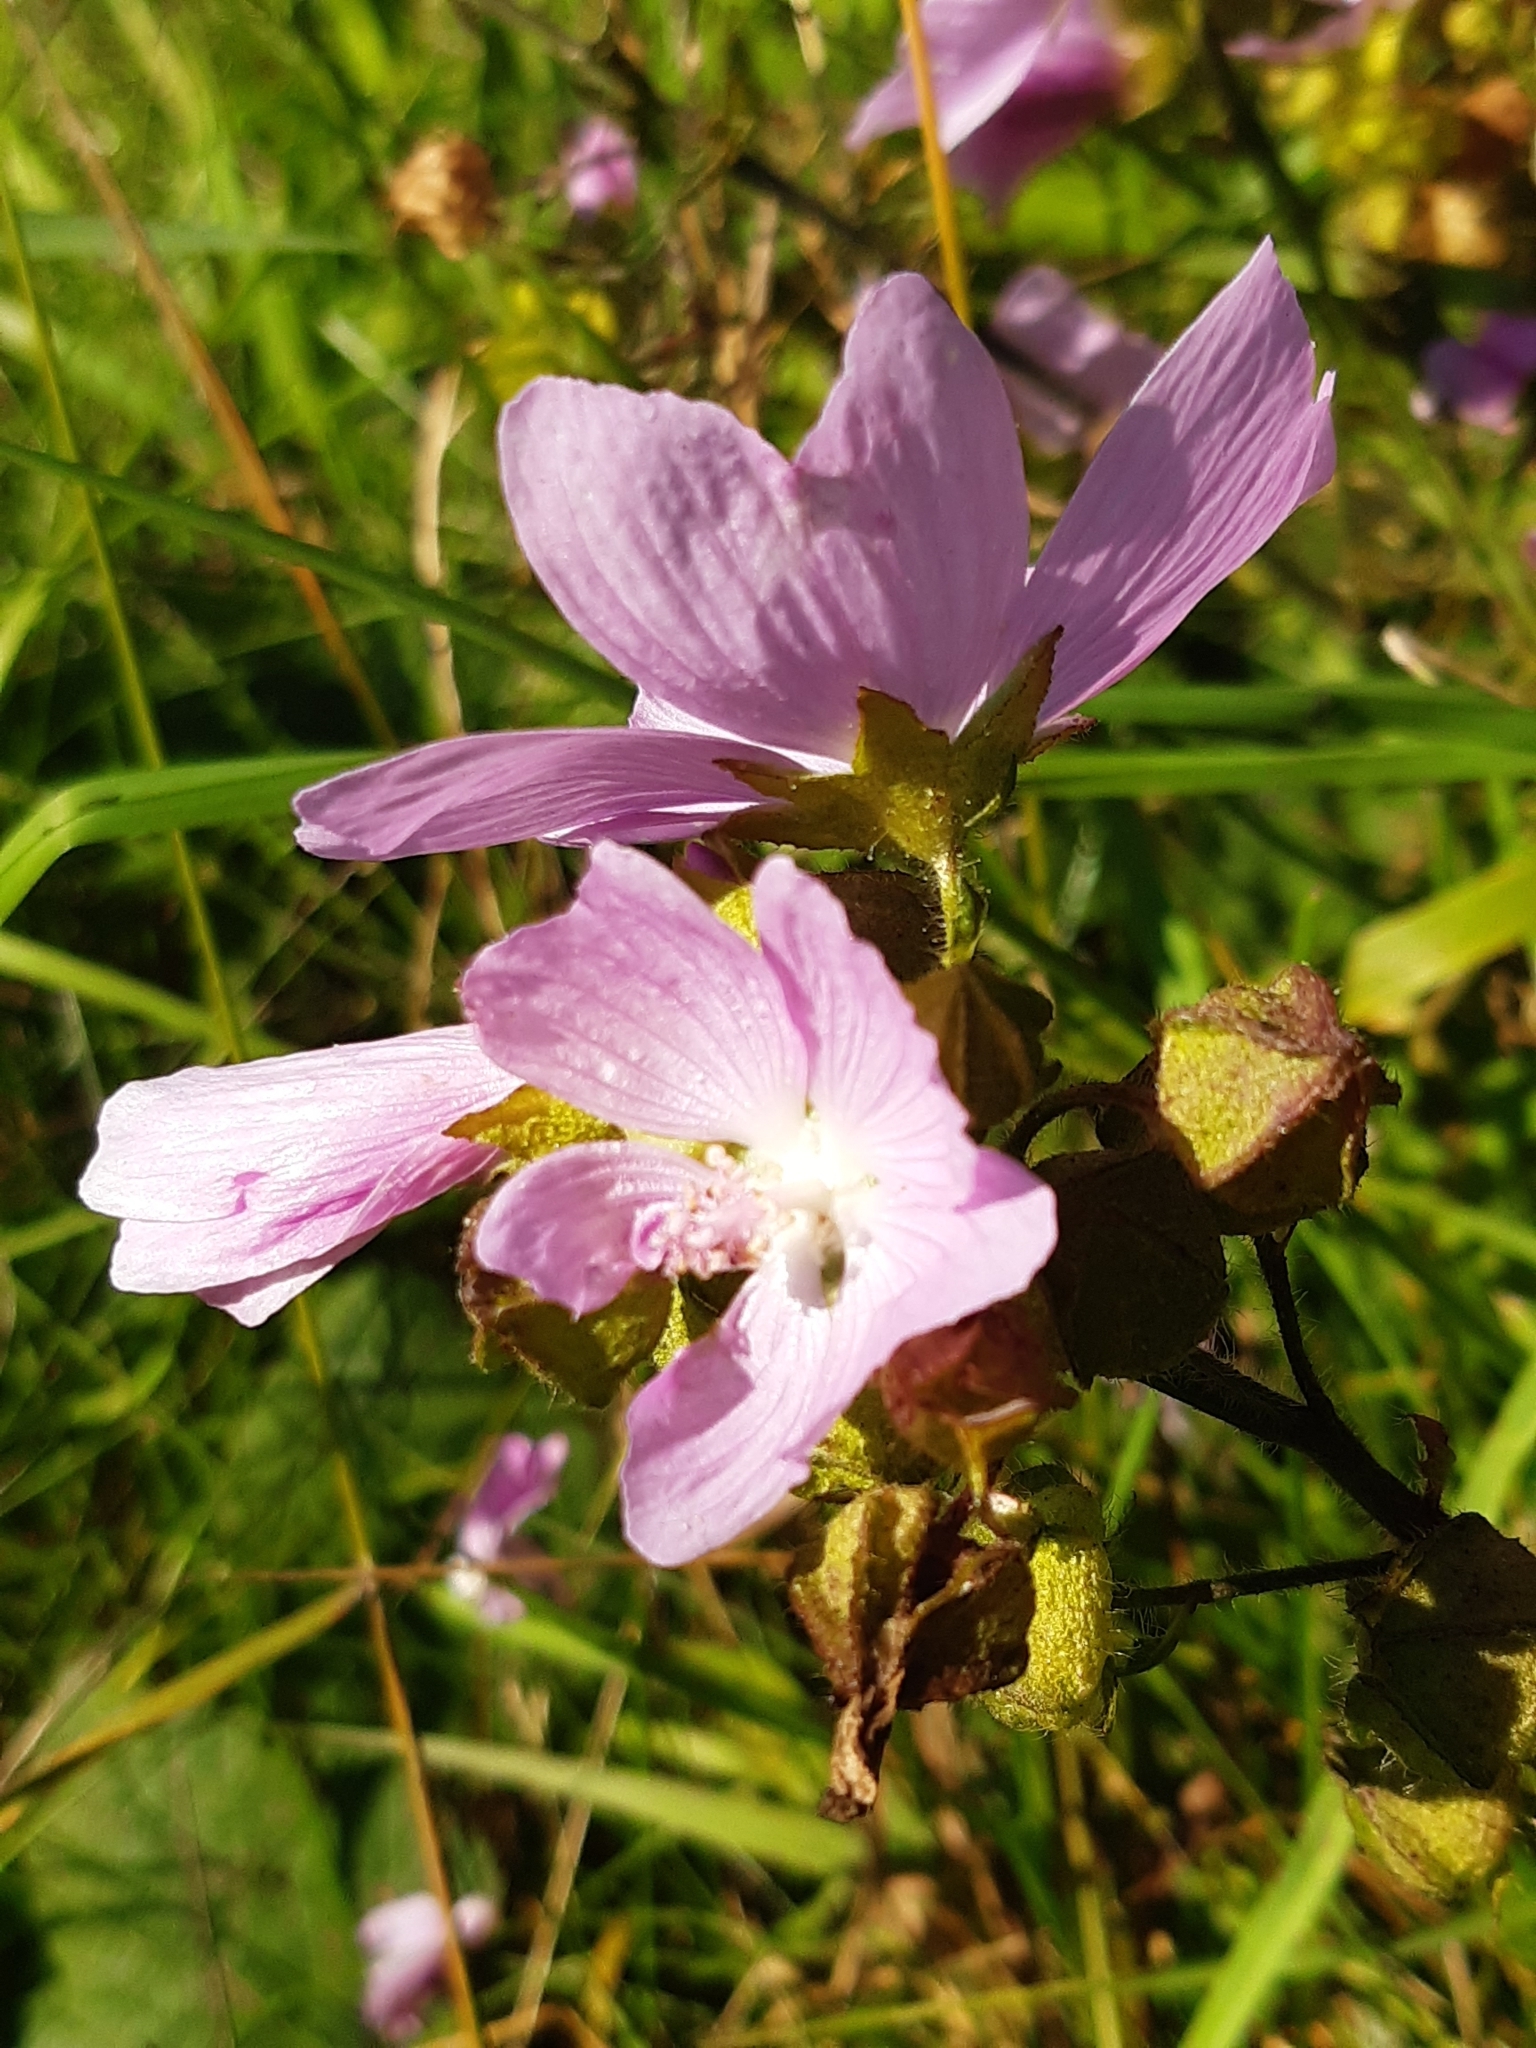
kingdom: Plantae
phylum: Tracheophyta
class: Magnoliopsida
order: Malvales
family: Malvaceae
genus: Malva
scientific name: Malva moschata
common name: Musk mallow
